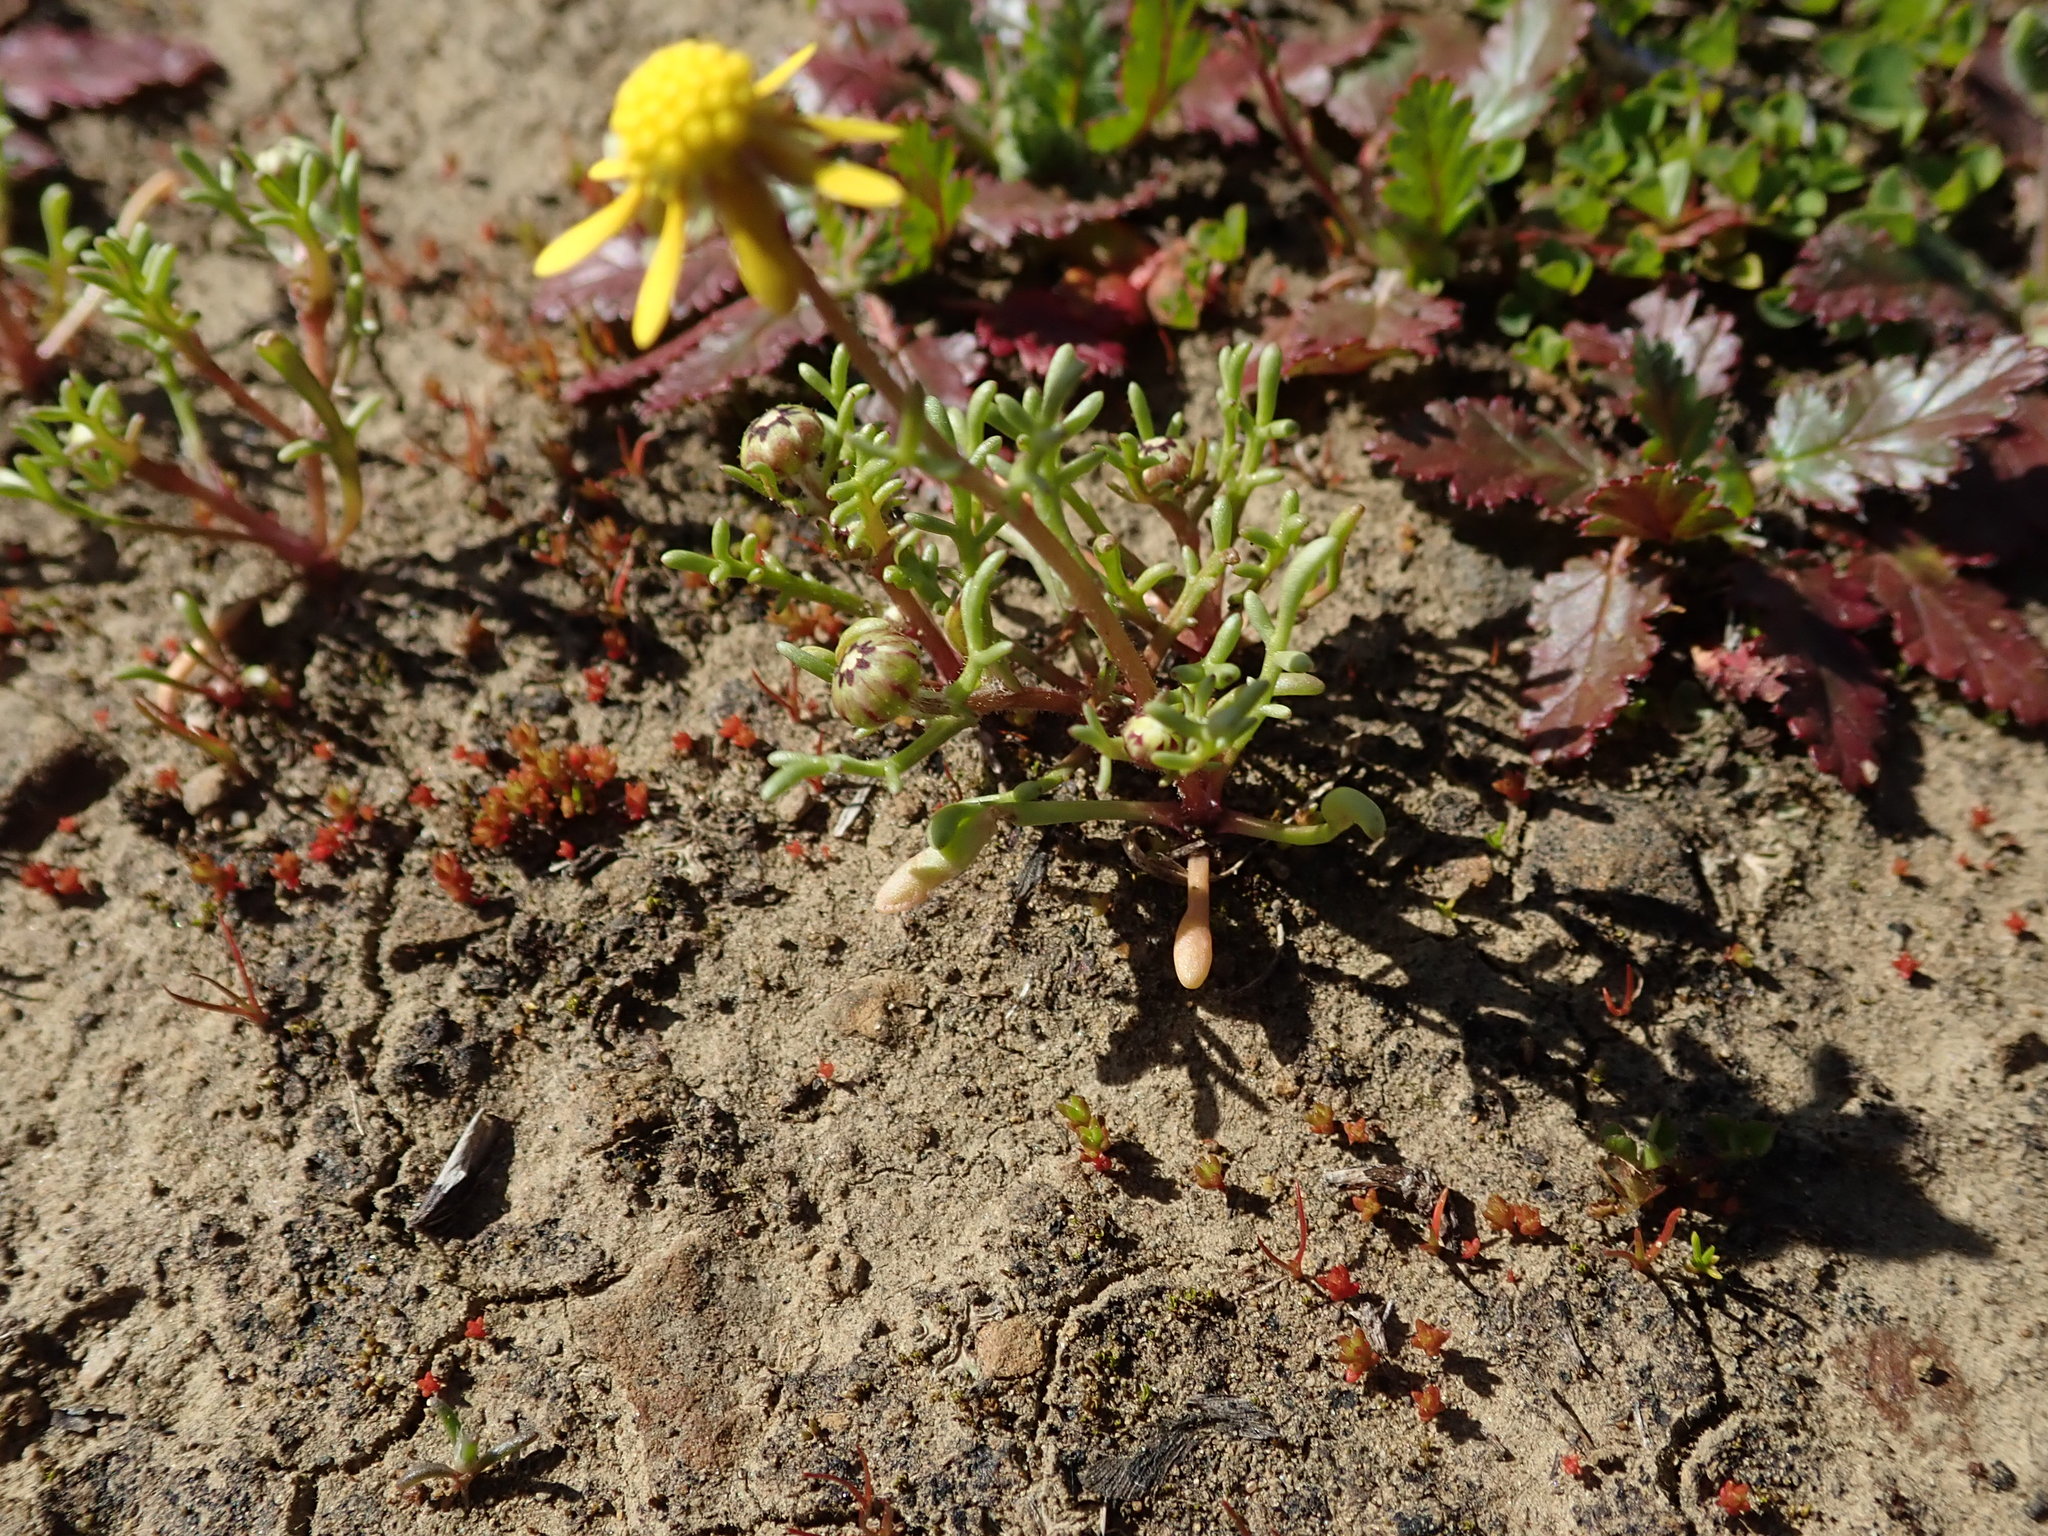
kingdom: Plantae
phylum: Tracheophyta
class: Magnoliopsida
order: Asterales
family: Asteraceae
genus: Blennosperma
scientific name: Blennosperma nanum
